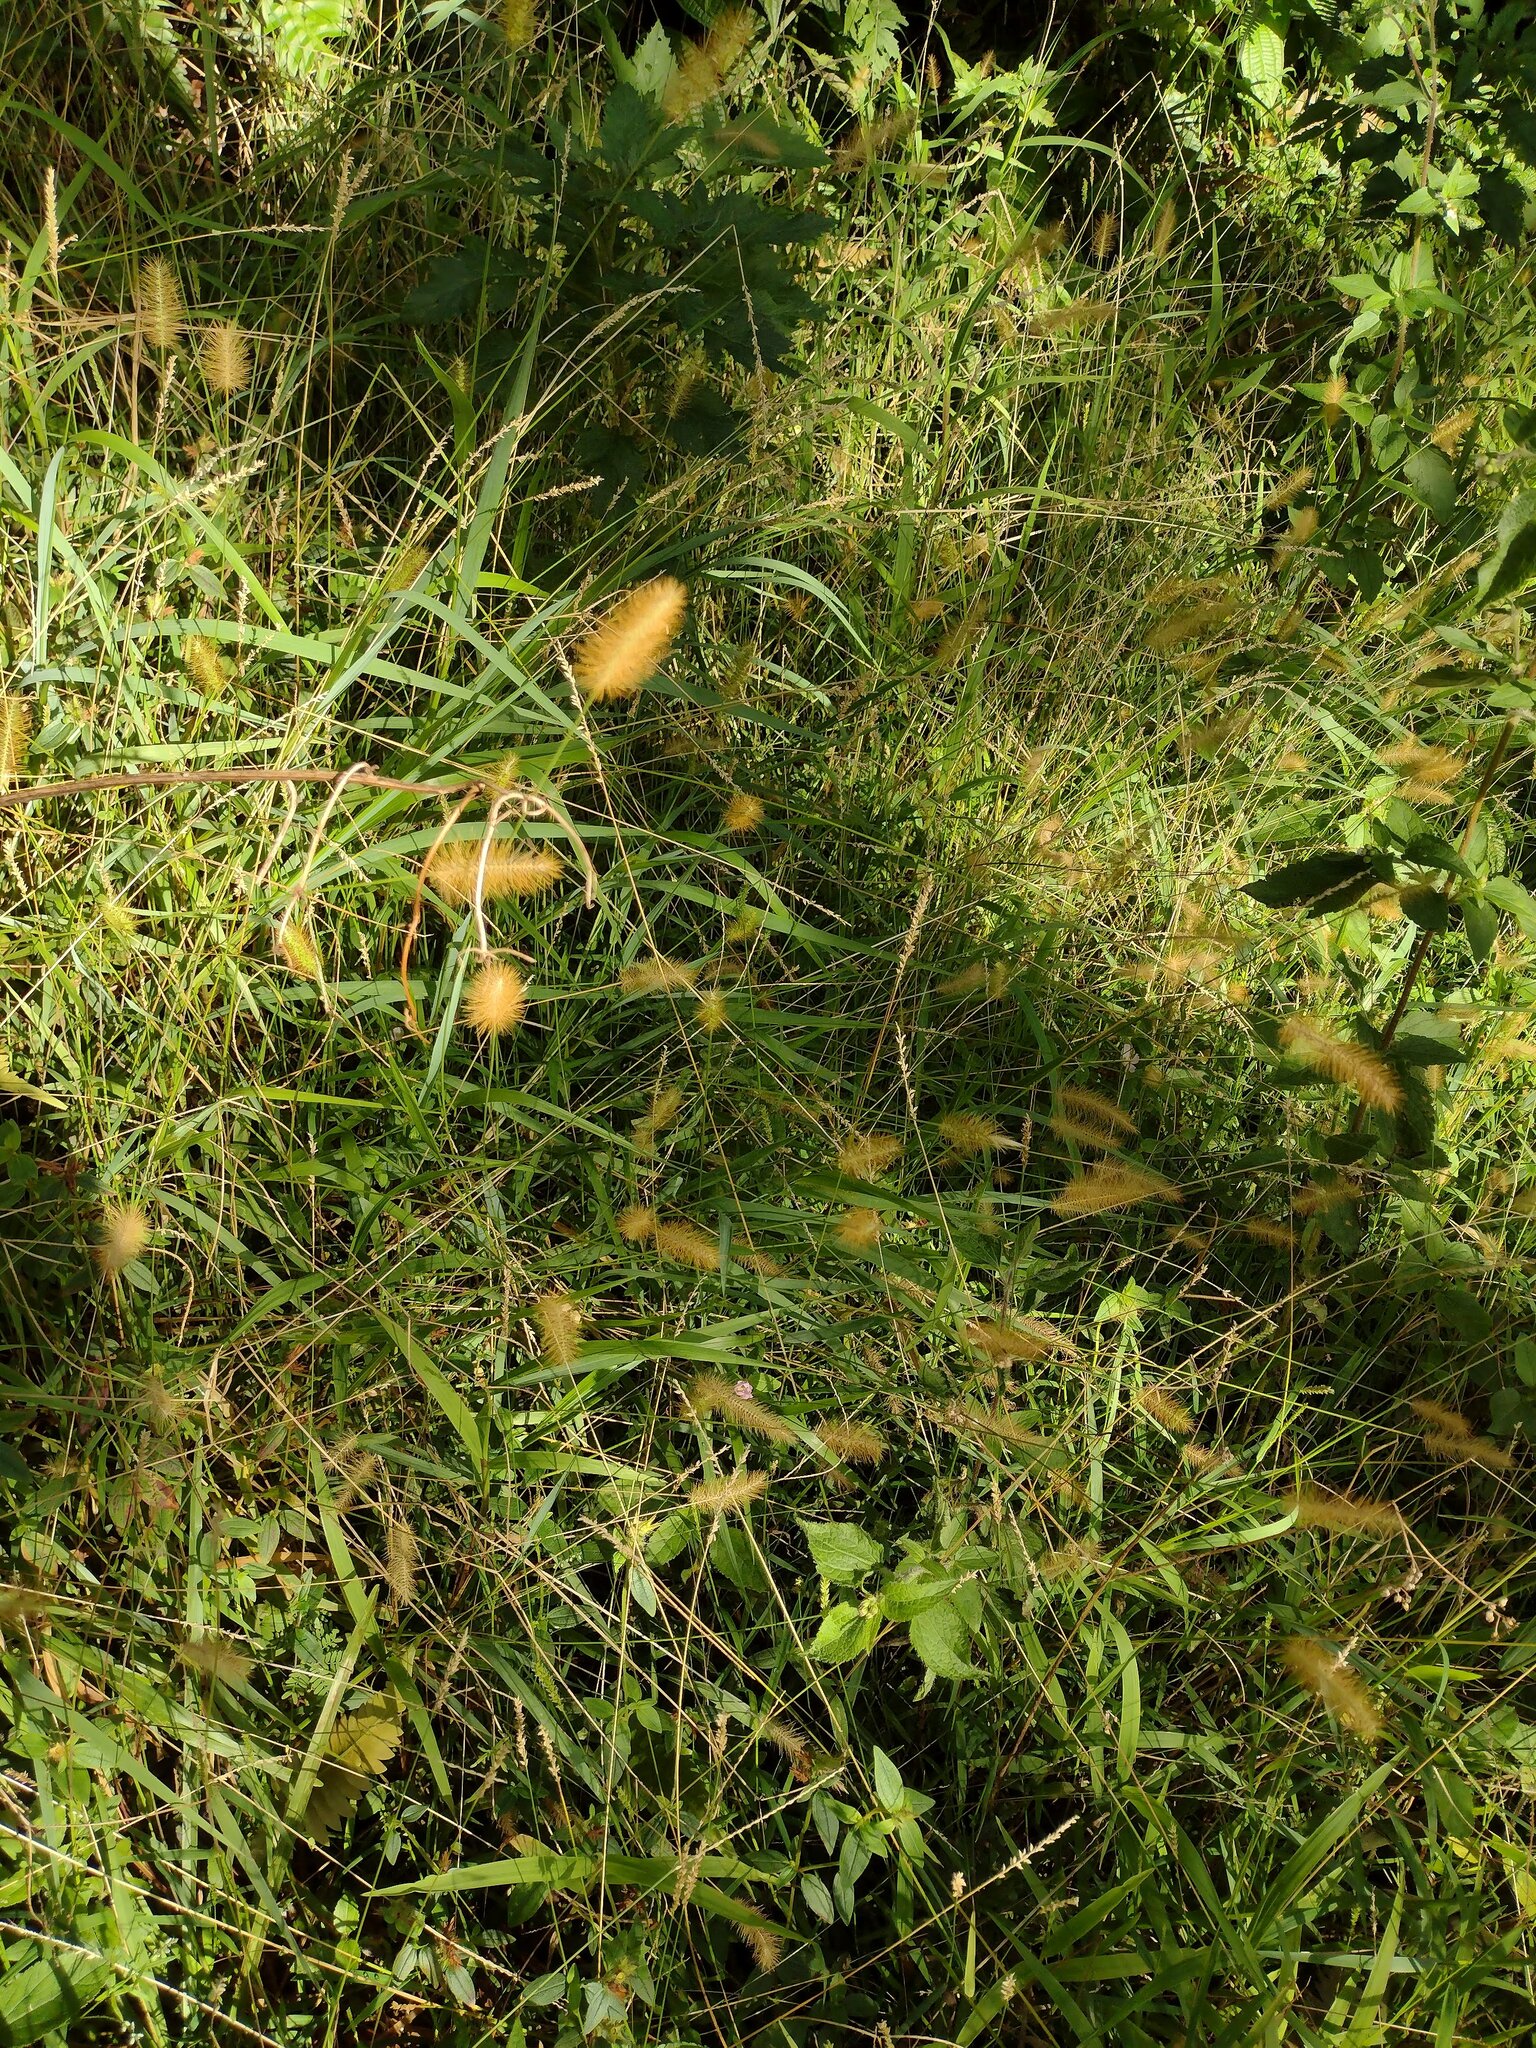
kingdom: Plantae
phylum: Tracheophyta
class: Liliopsida
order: Poales
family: Poaceae
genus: Setaria
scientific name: Setaria parviflora
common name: Knotroot bristle-grass
